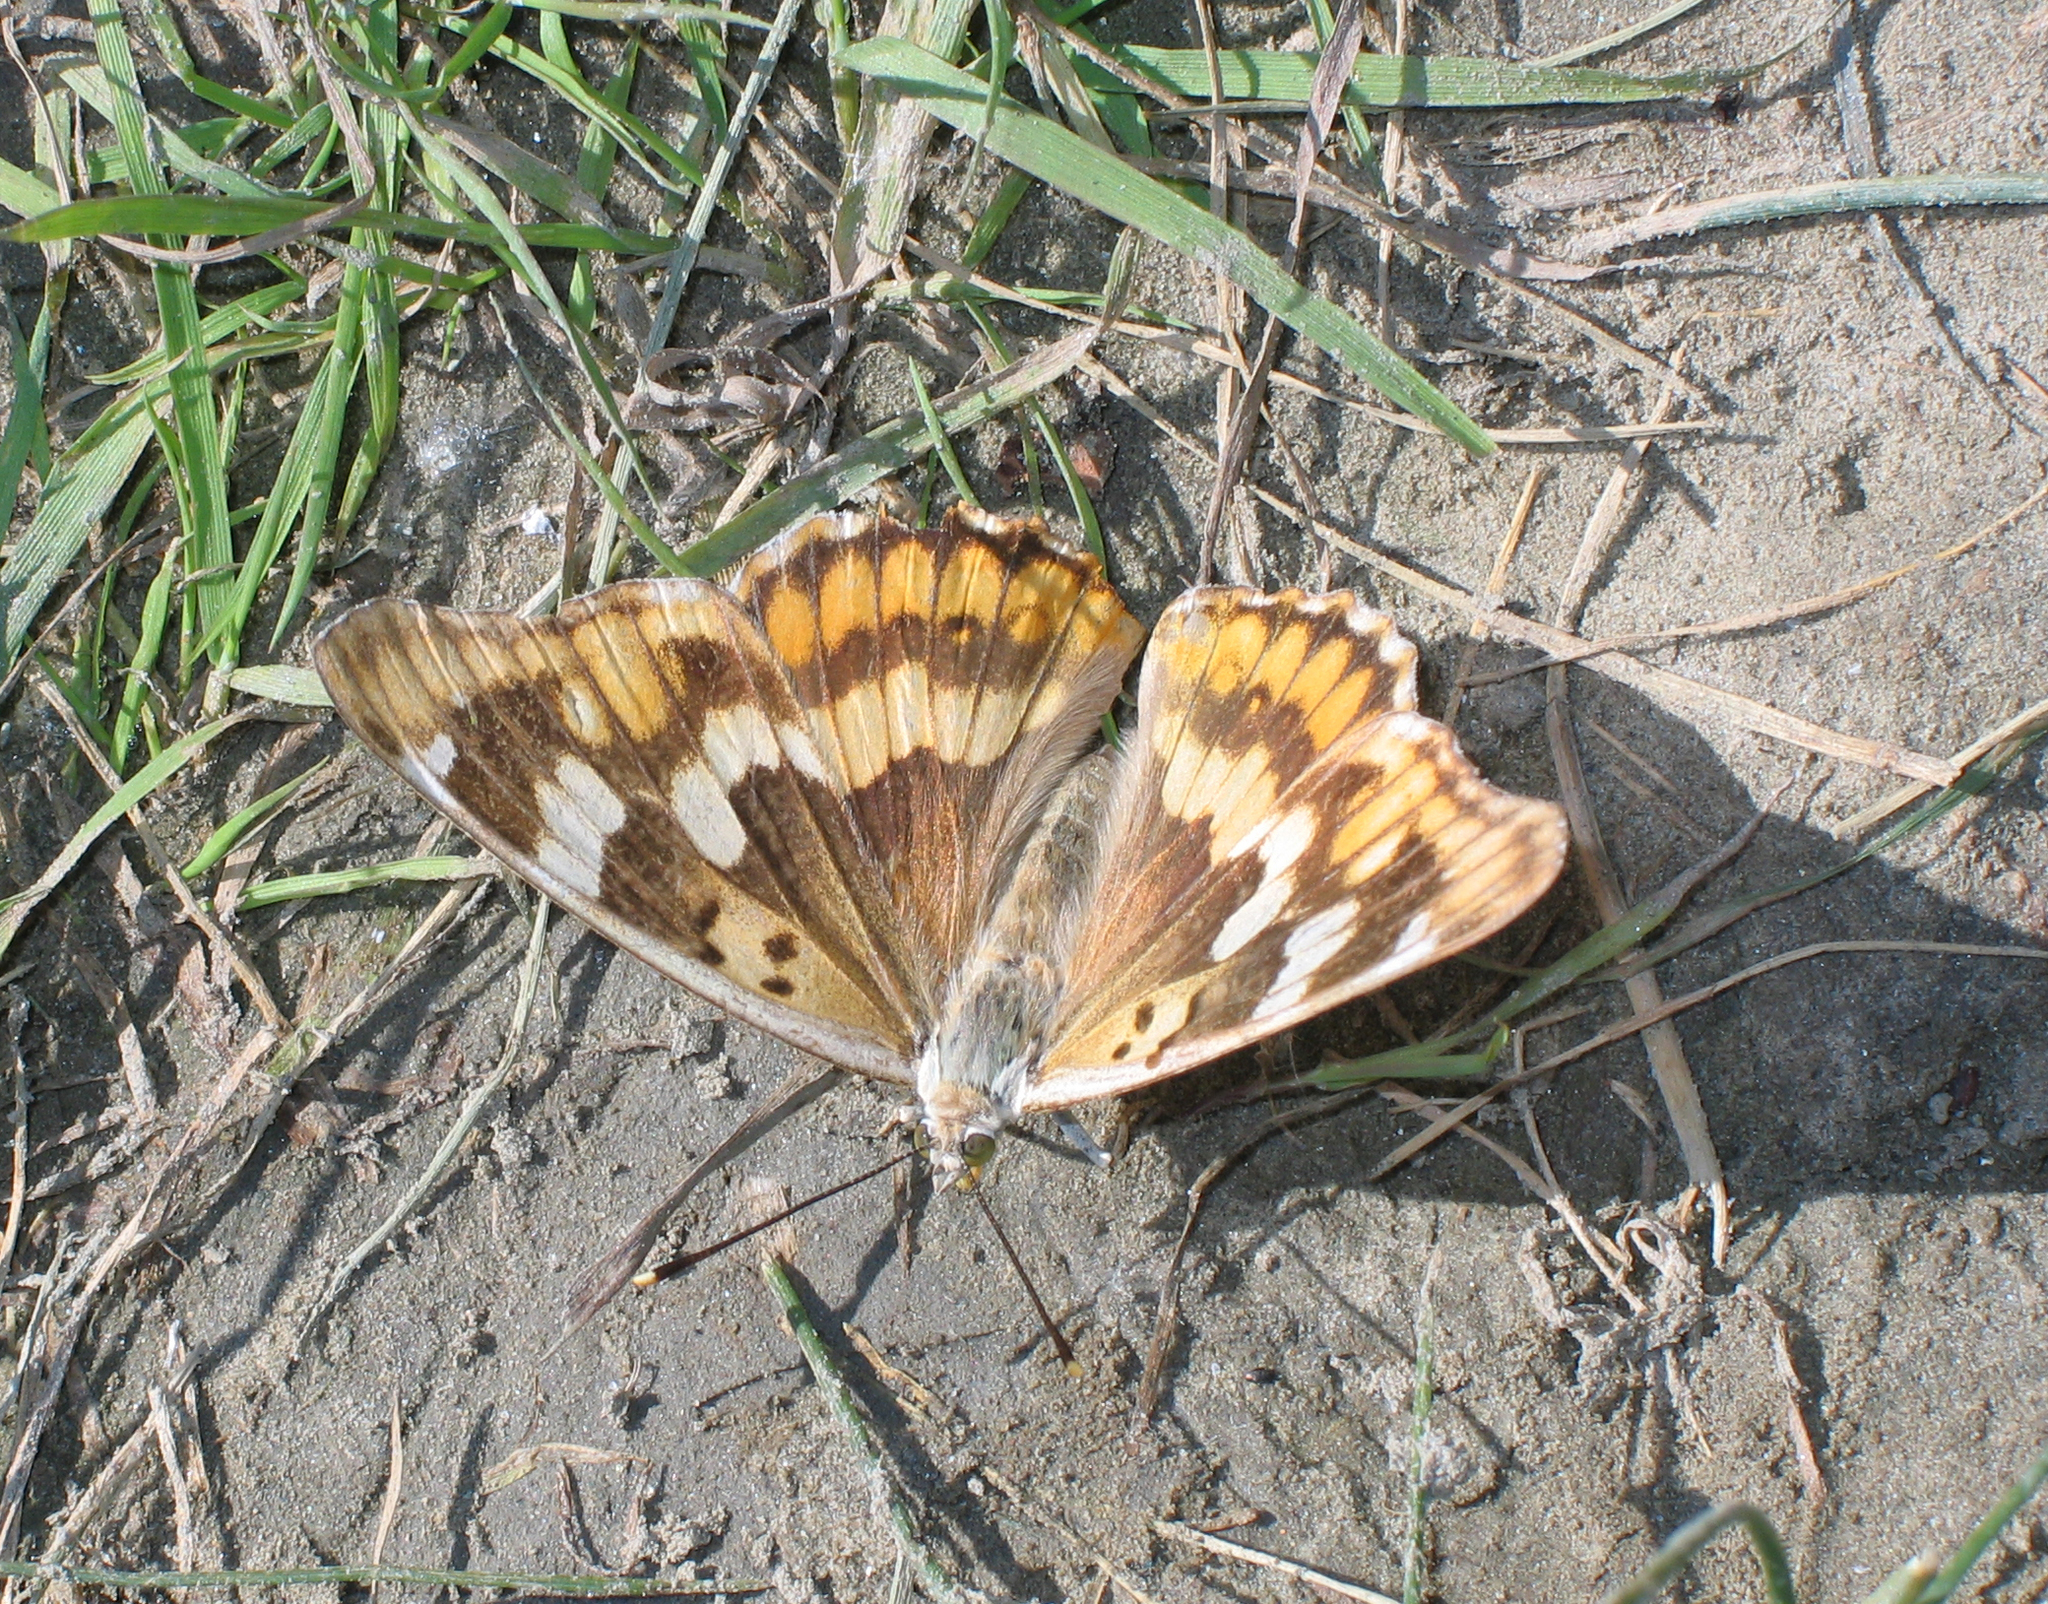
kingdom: Animalia
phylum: Arthropoda
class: Insecta
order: Lepidoptera
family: Nymphalidae
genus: Apatura
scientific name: Apatura ilia
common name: Lesser purple emperor
